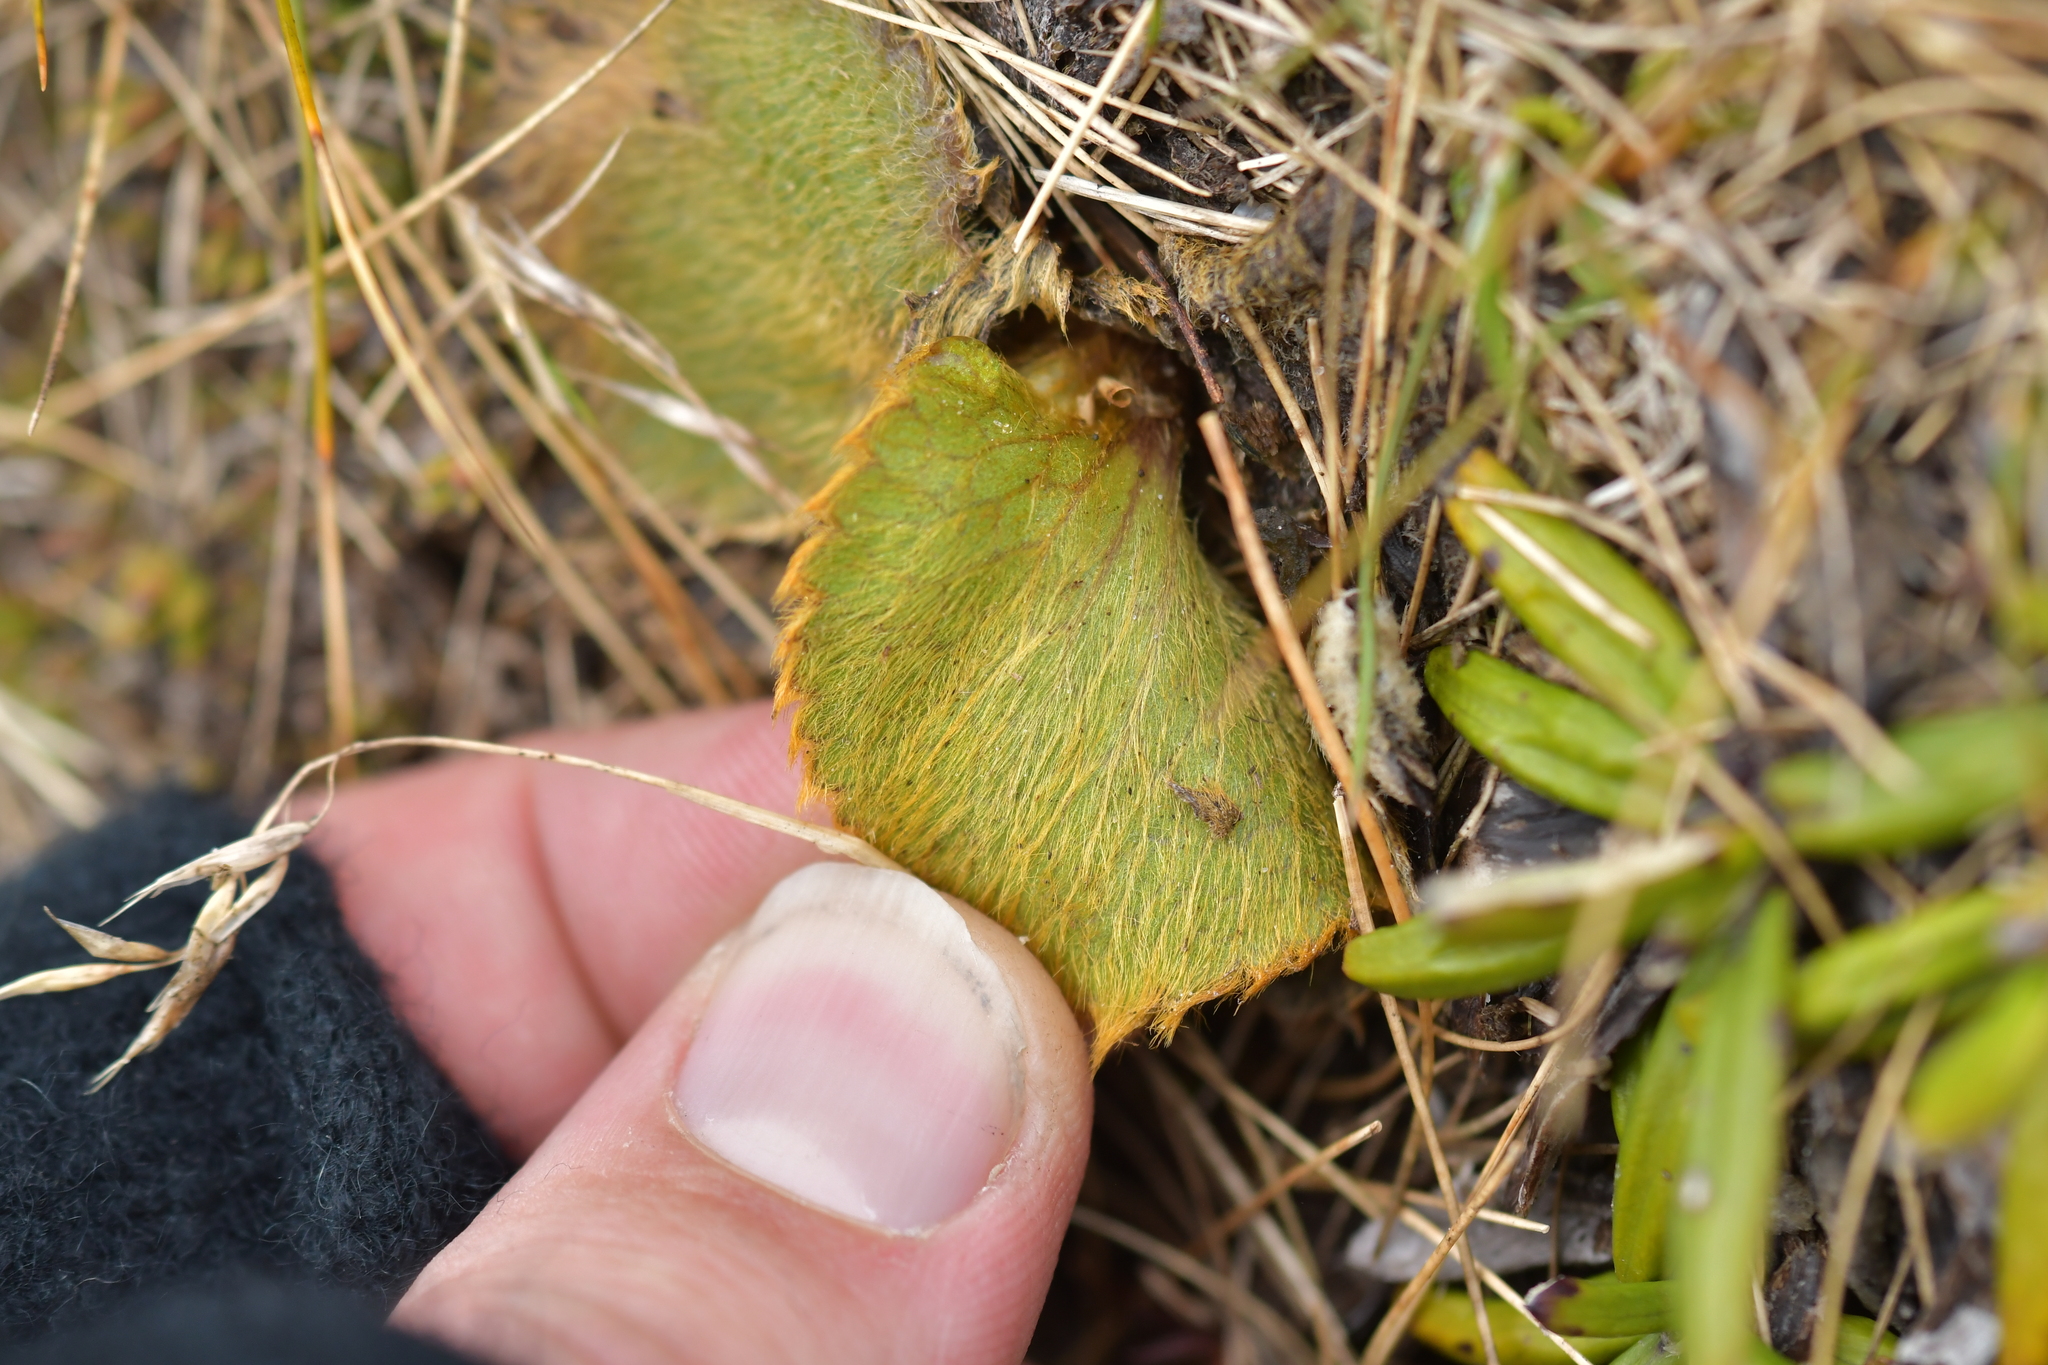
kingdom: Plantae
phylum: Tracheophyta
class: Magnoliopsida
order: Ranunculales
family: Ranunculaceae
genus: Ranunculus
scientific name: Ranunculus insignis
